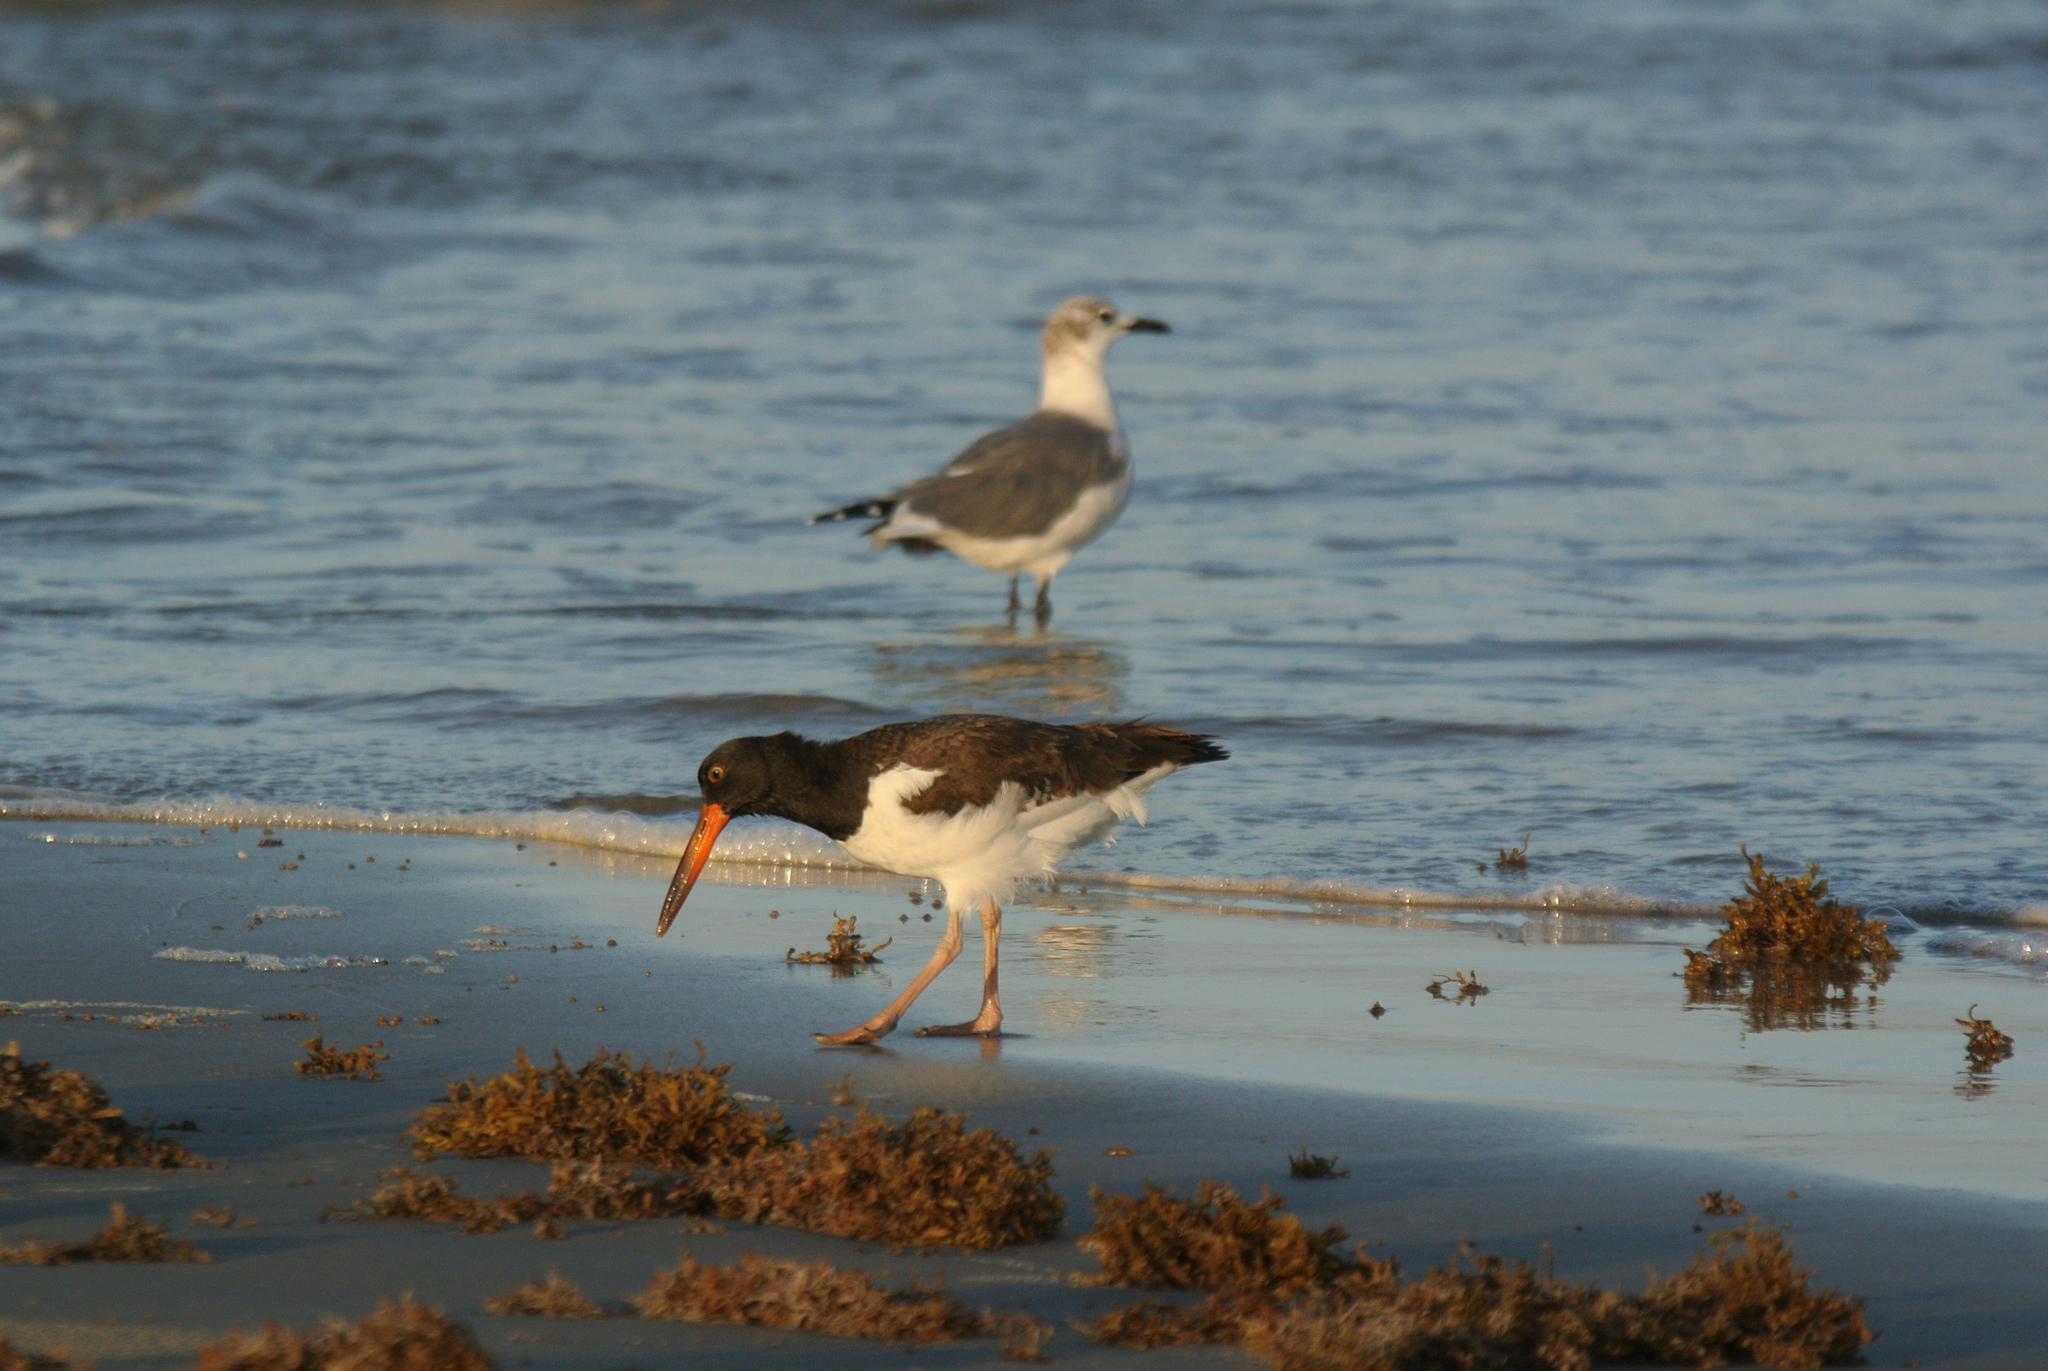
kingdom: Animalia
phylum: Chordata
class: Aves
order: Charadriiformes
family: Haematopodidae
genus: Haematopus
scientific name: Haematopus palliatus
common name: American oystercatcher
